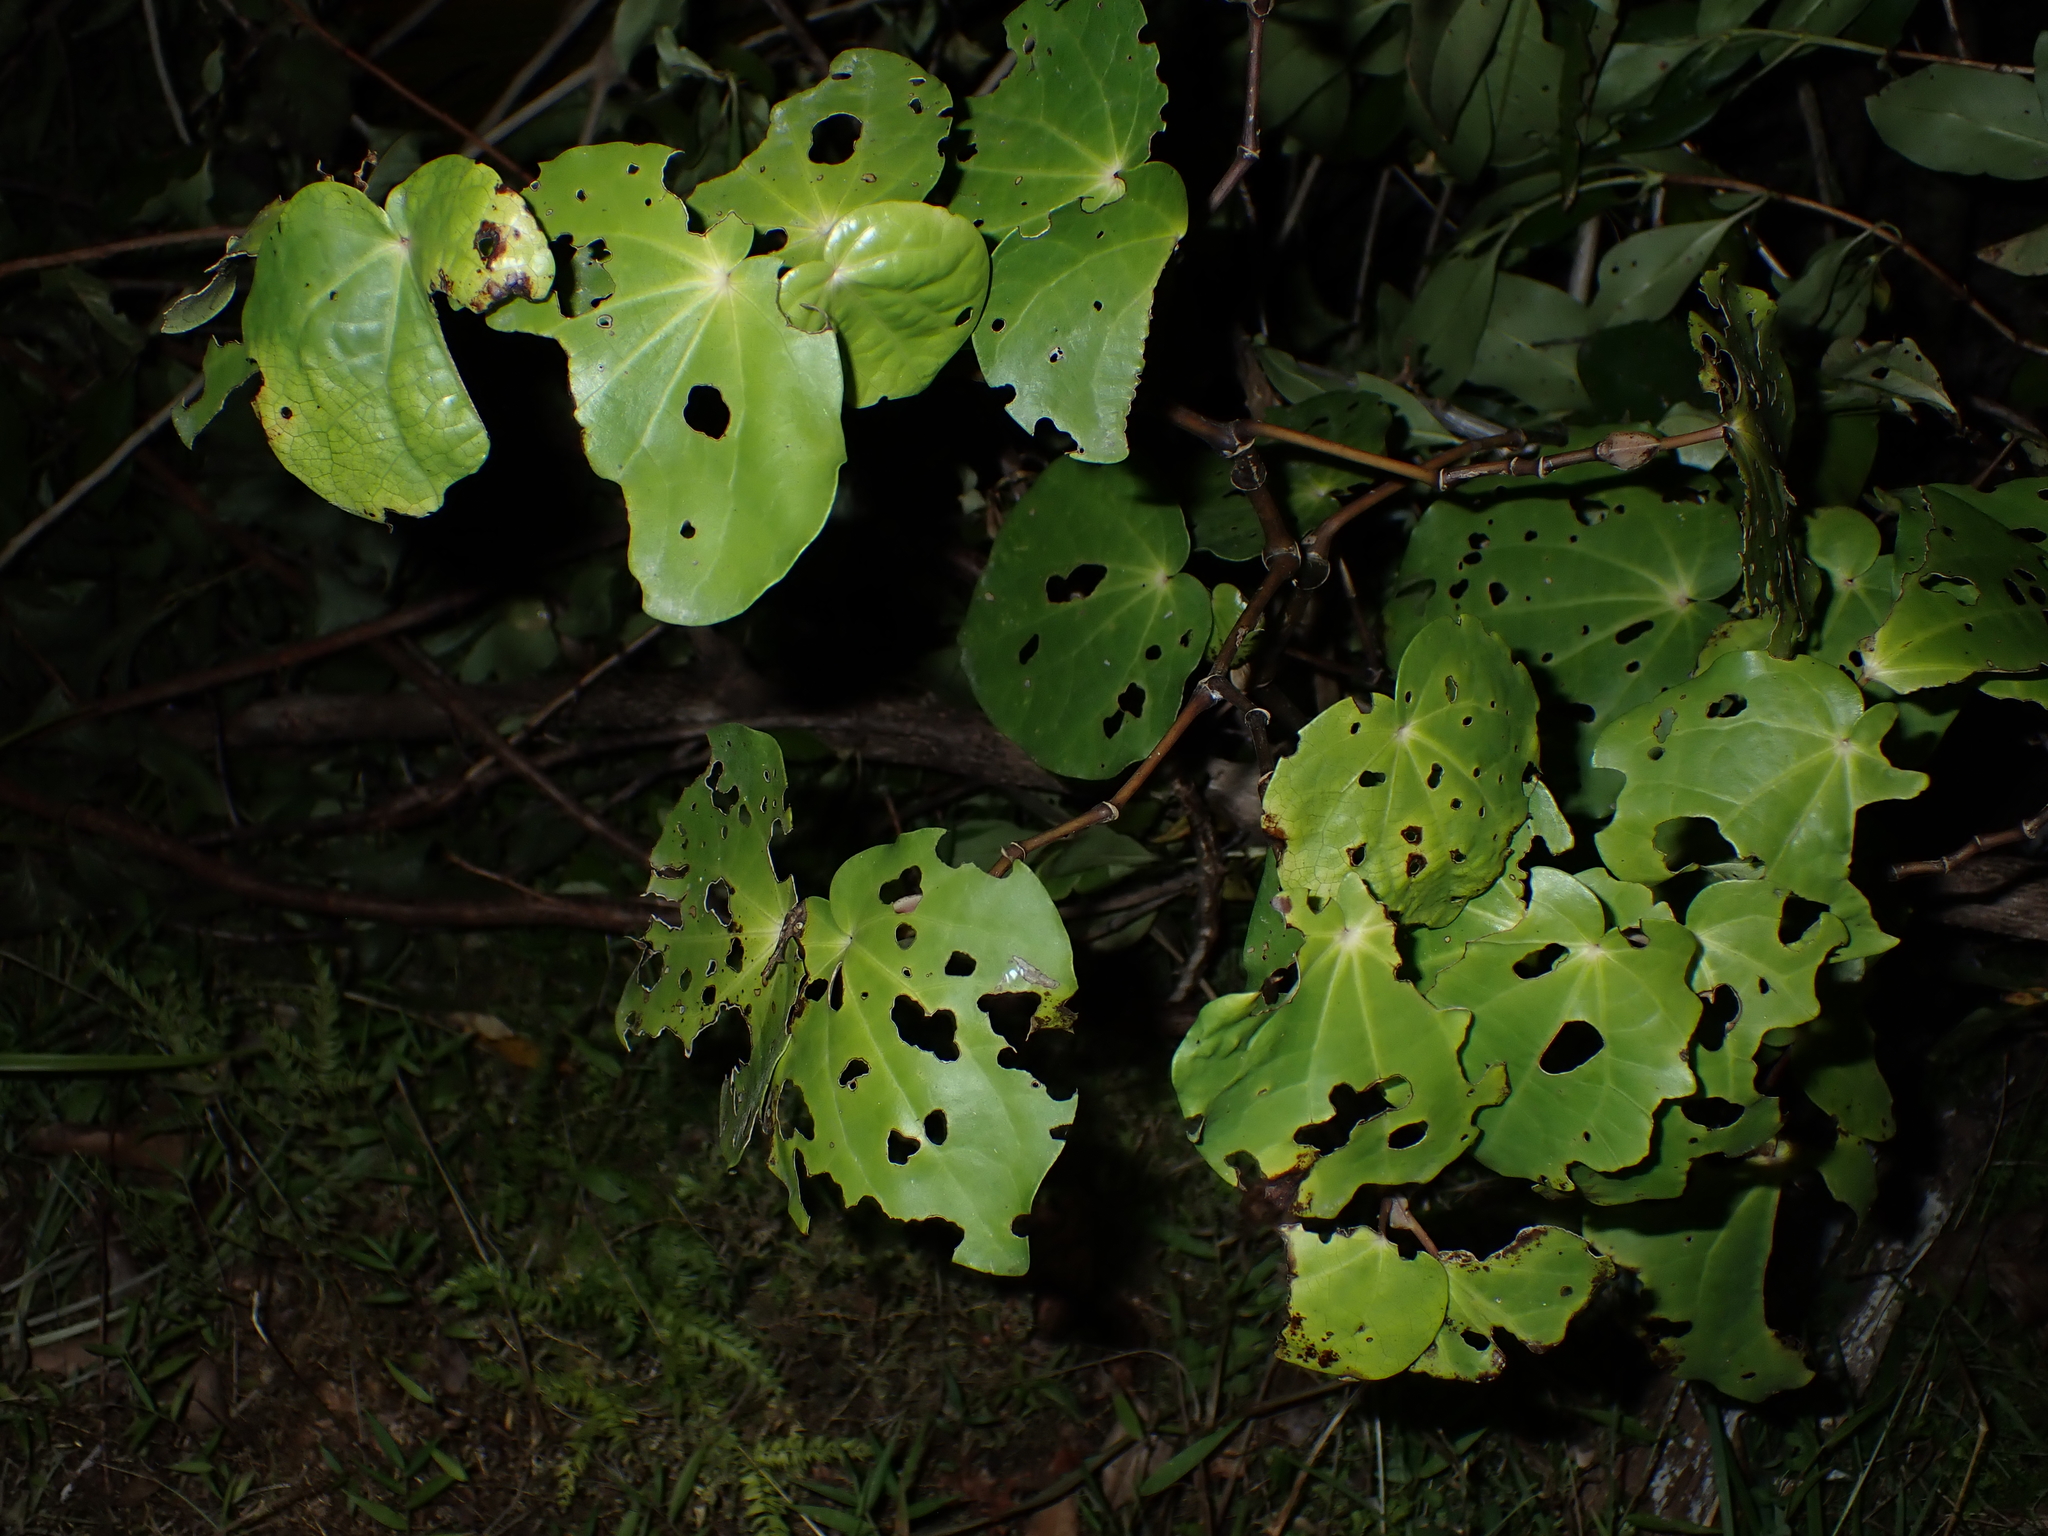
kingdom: Plantae
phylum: Tracheophyta
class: Magnoliopsida
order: Piperales
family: Piperaceae
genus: Macropiper
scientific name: Macropiper excelsum
